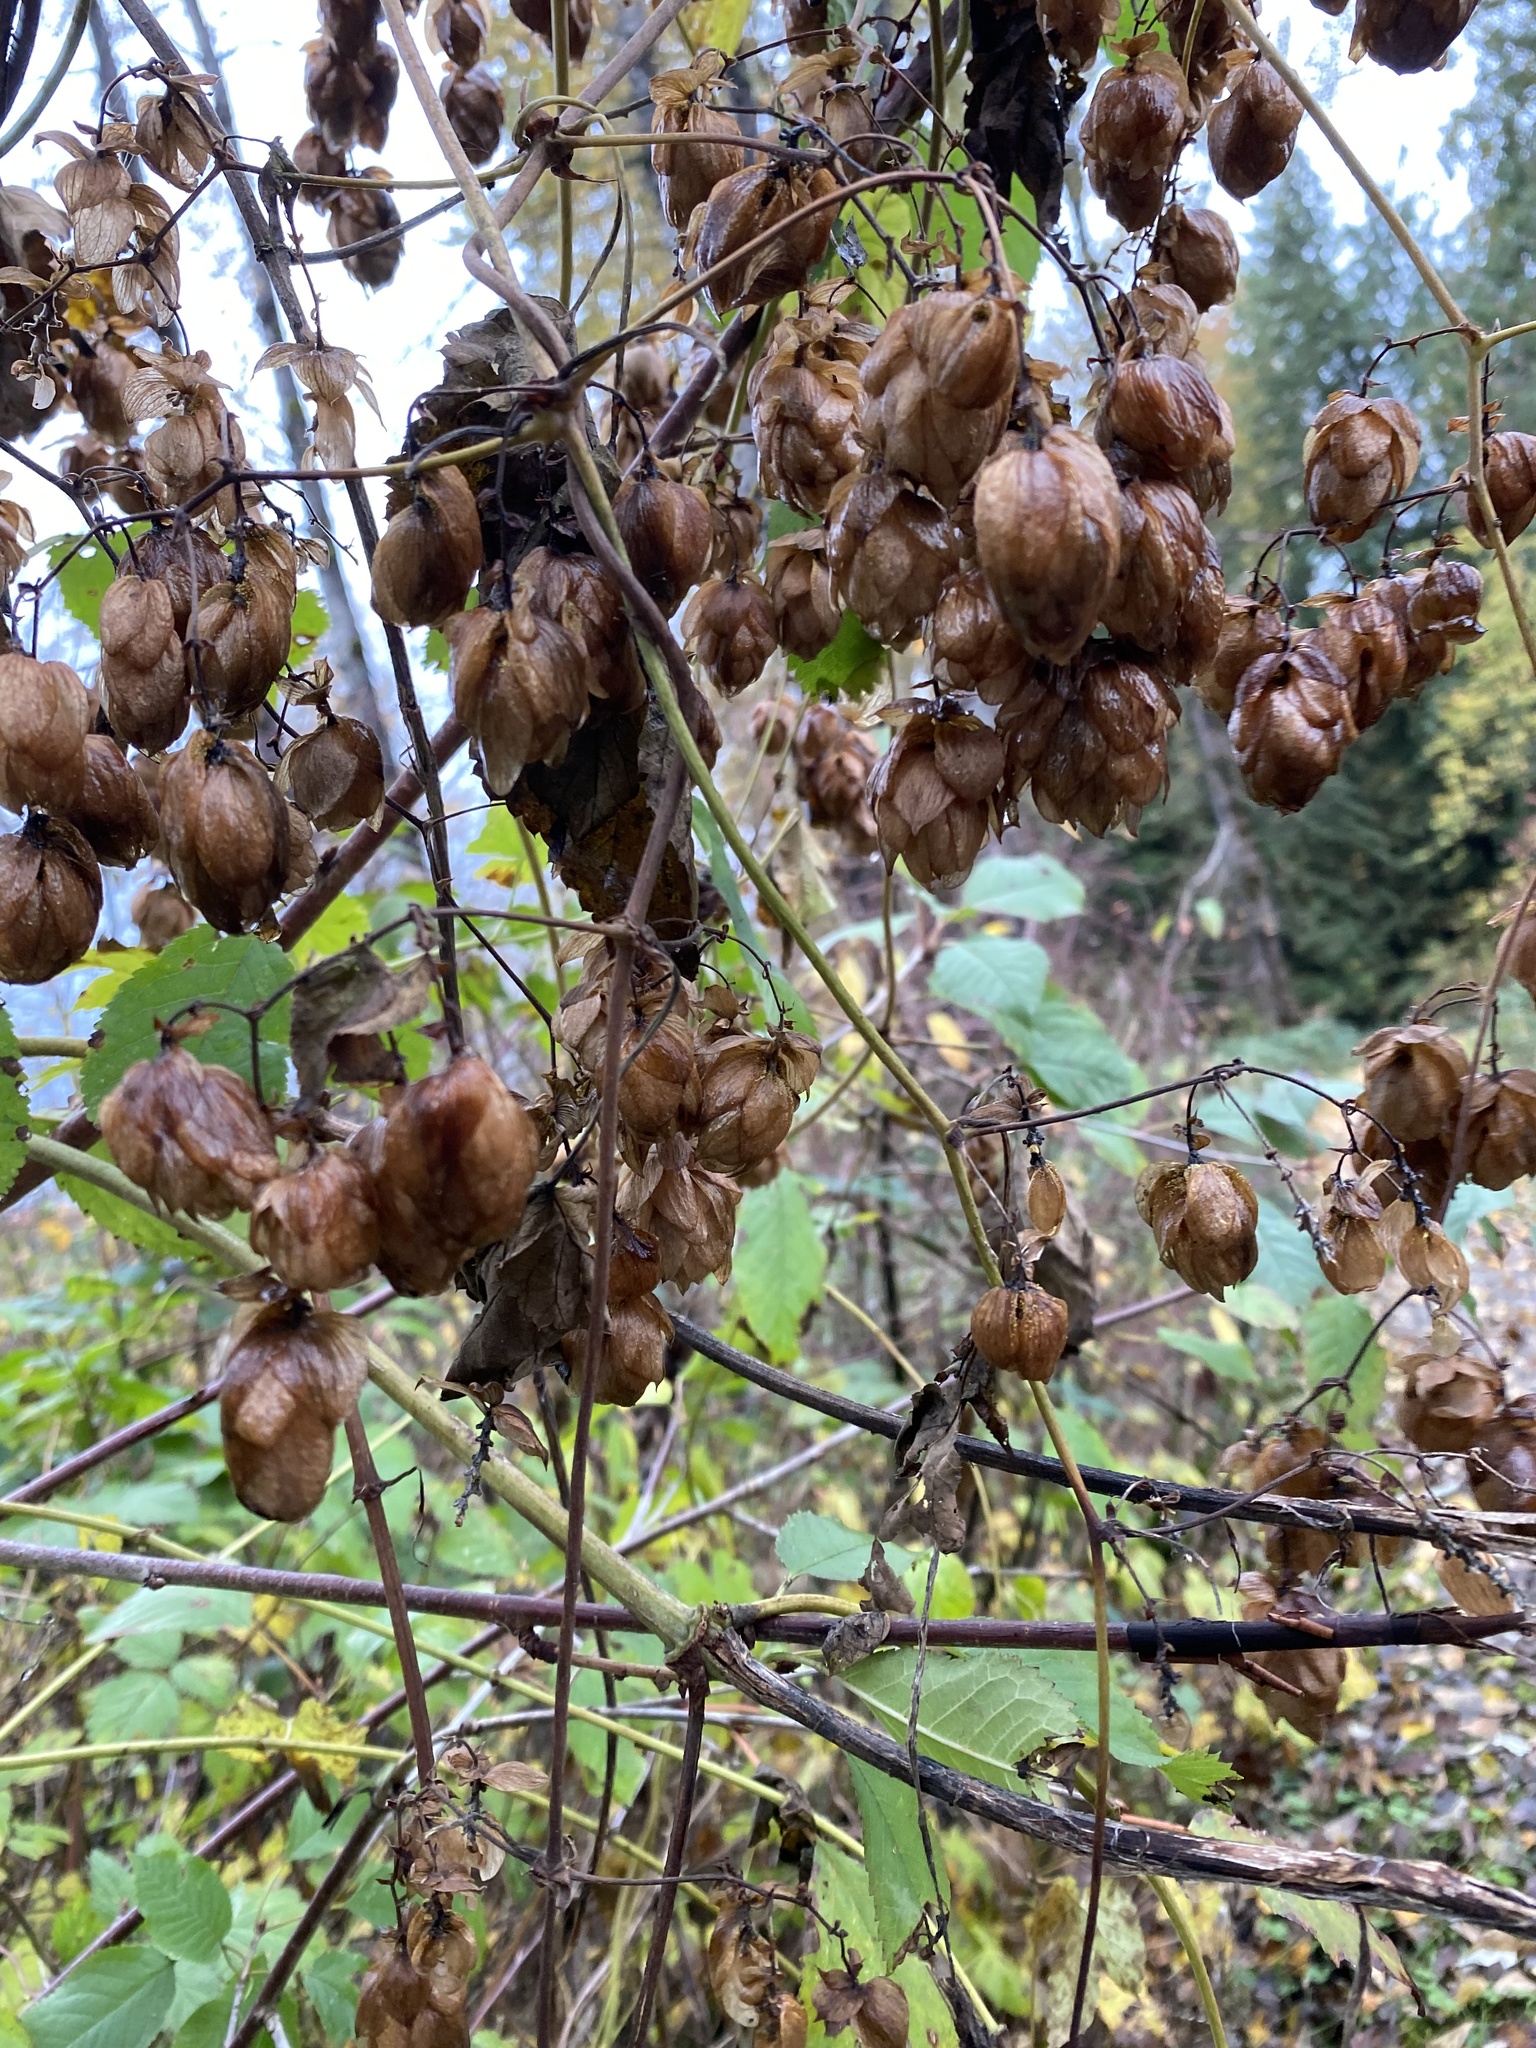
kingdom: Plantae
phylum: Tracheophyta
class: Magnoliopsida
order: Rosales
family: Cannabaceae
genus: Humulus
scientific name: Humulus lupulus
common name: Hop
